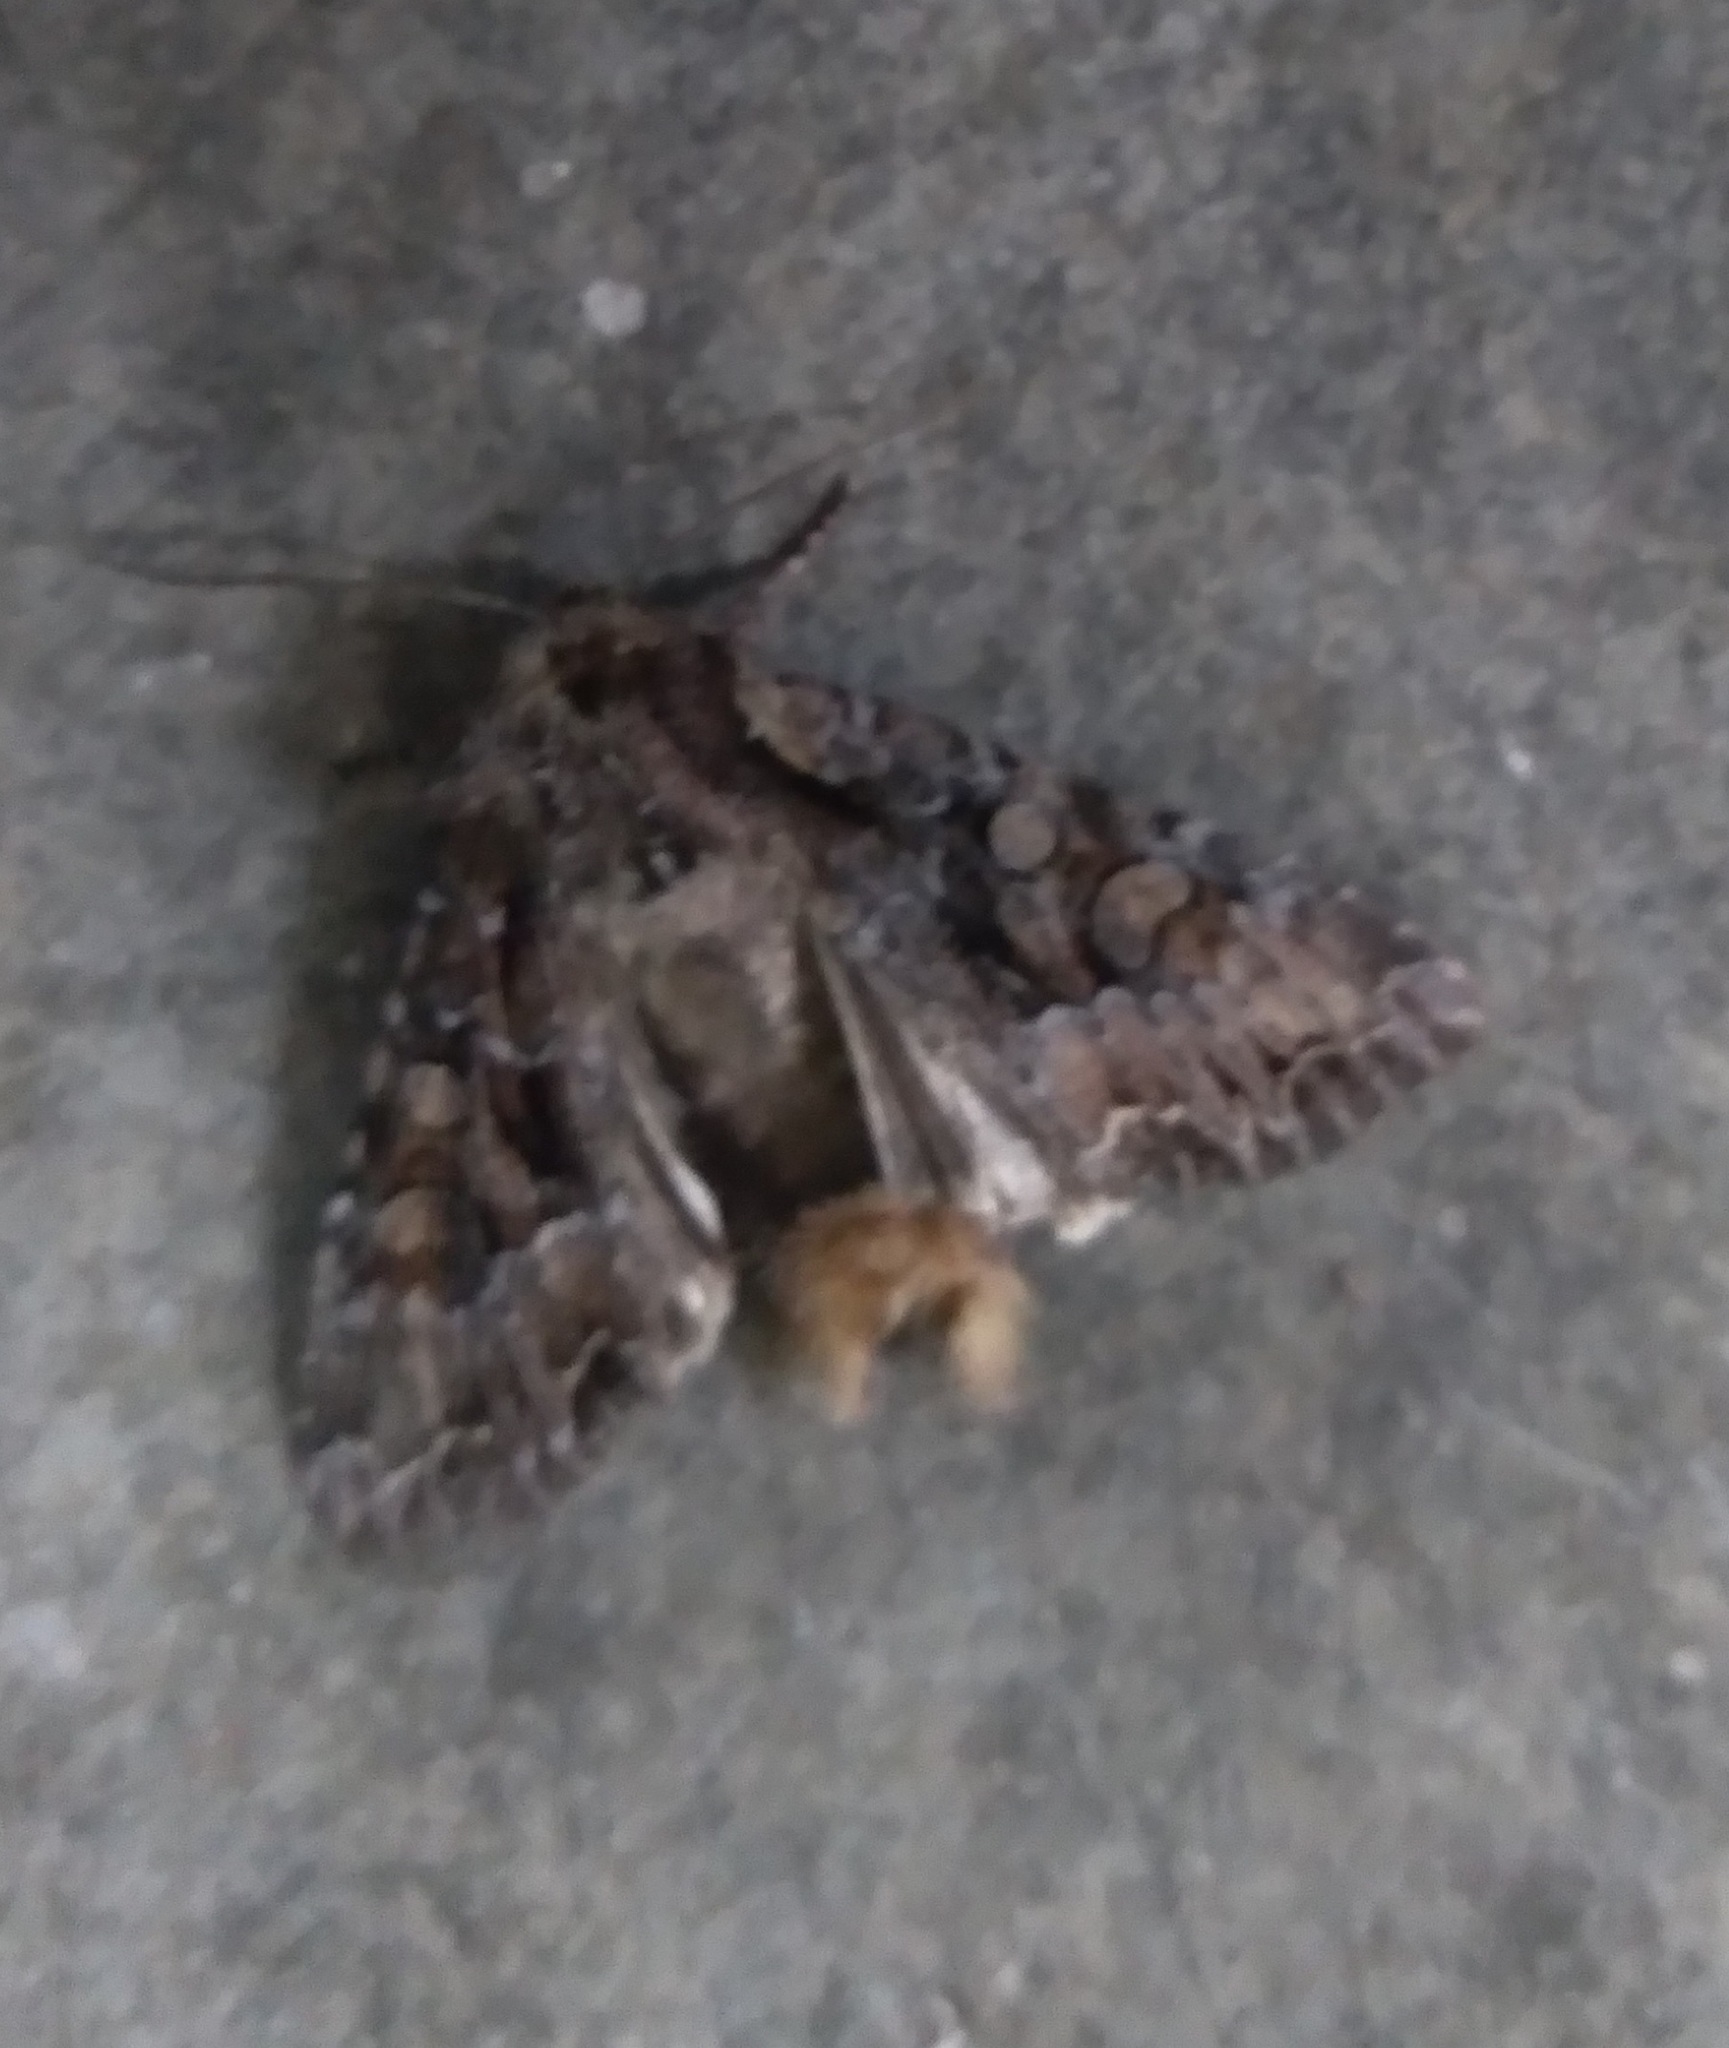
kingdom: Animalia
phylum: Arthropoda
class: Insecta
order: Lepidoptera
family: Noctuidae
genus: Lacanobia
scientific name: Lacanobia thalassina
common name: Pale-shouldered brocade
